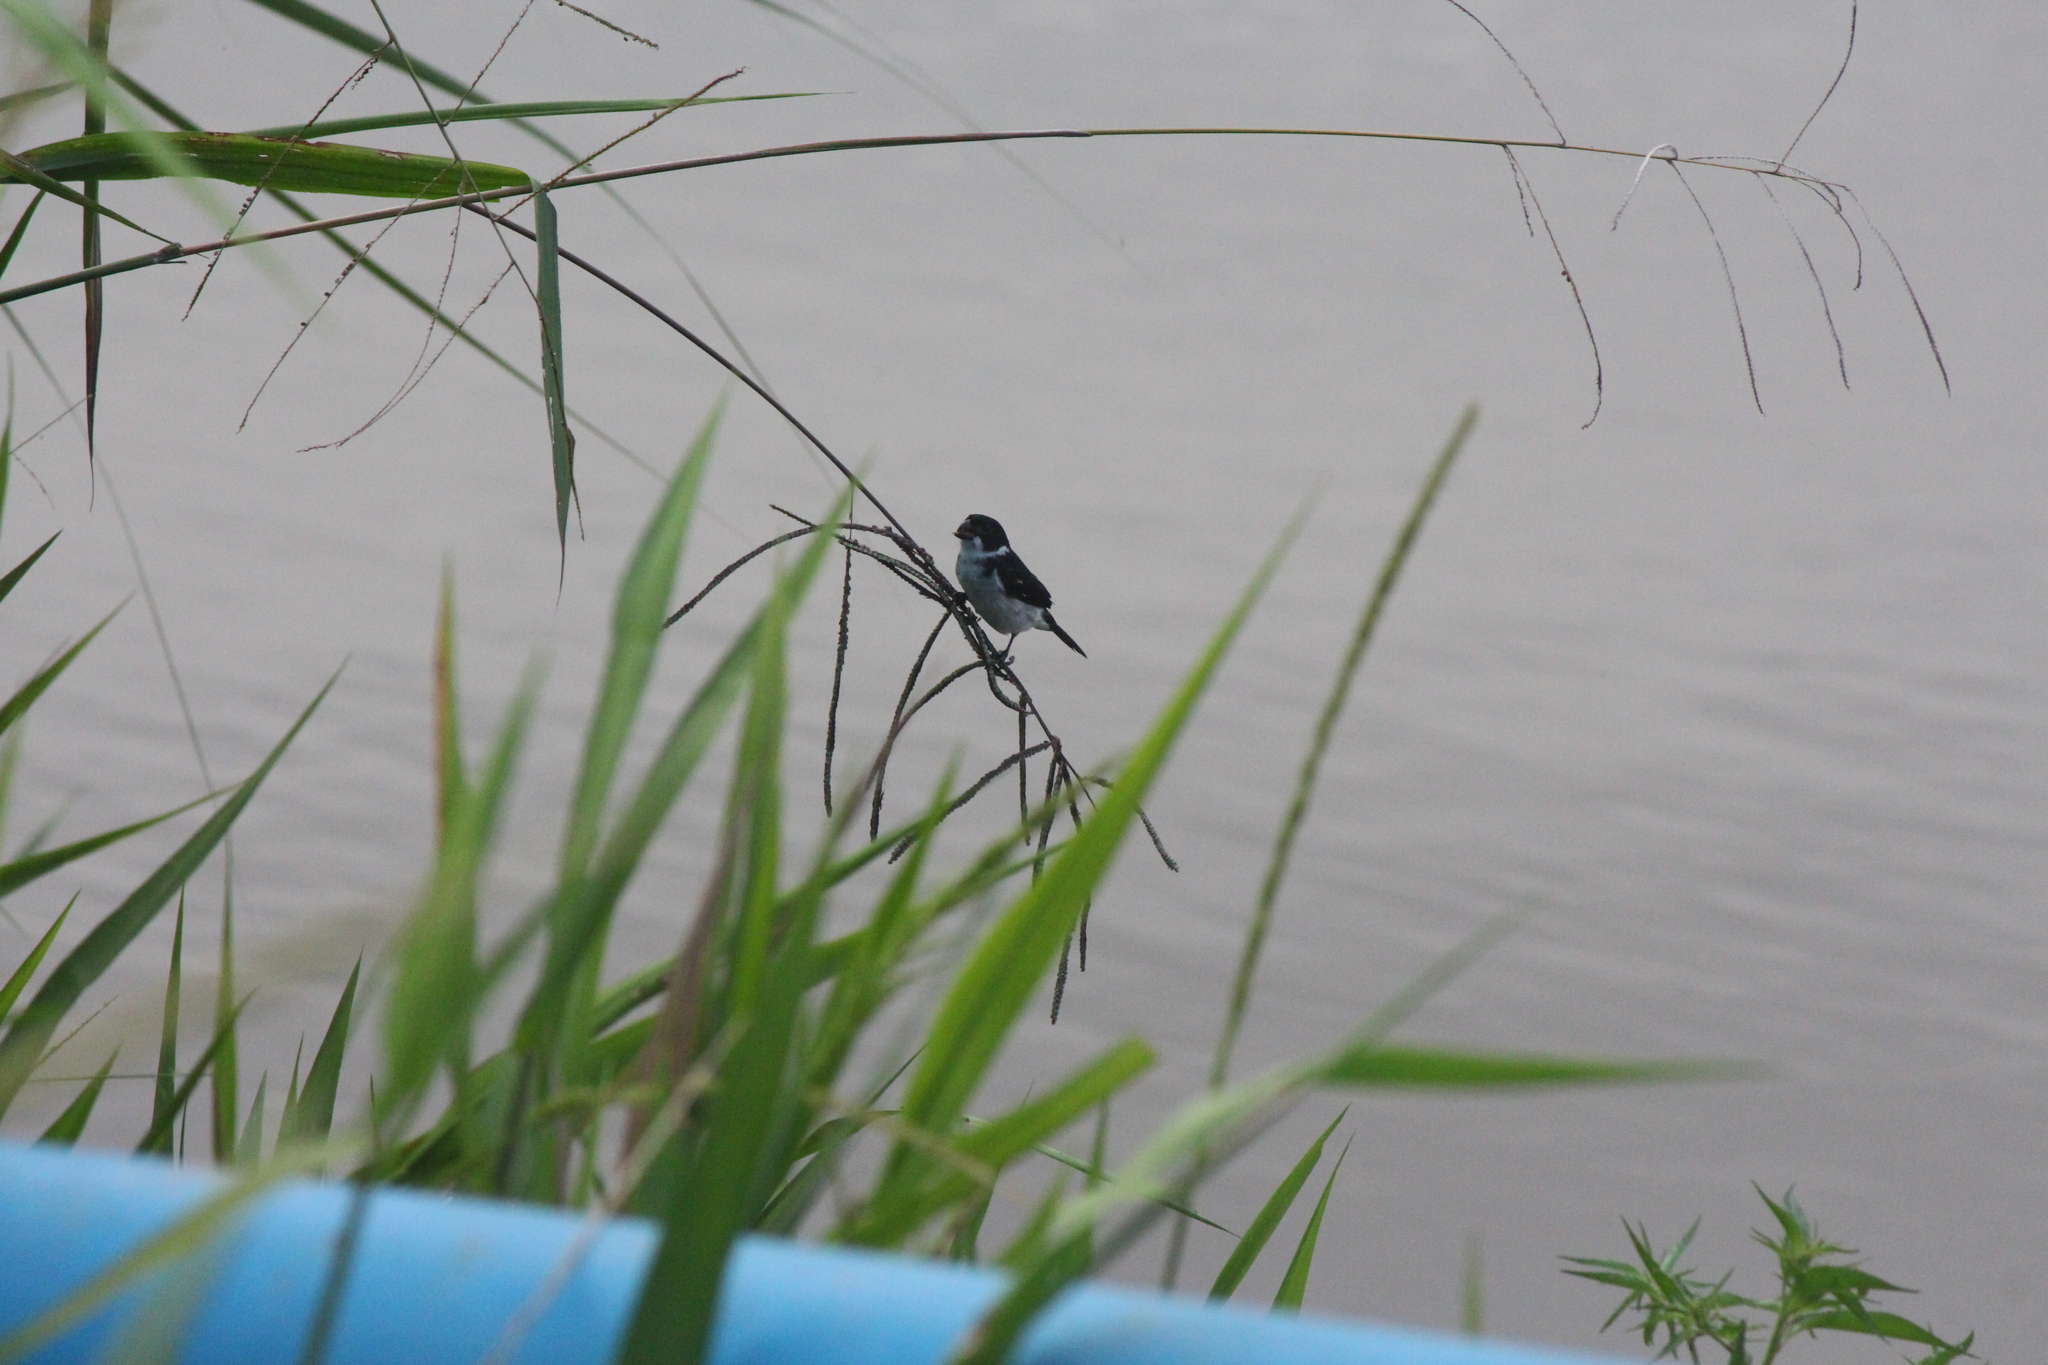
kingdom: Animalia
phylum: Chordata
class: Aves
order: Passeriformes
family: Thraupidae
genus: Sporophila
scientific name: Sporophila americana
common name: Wing-barred seedeater
